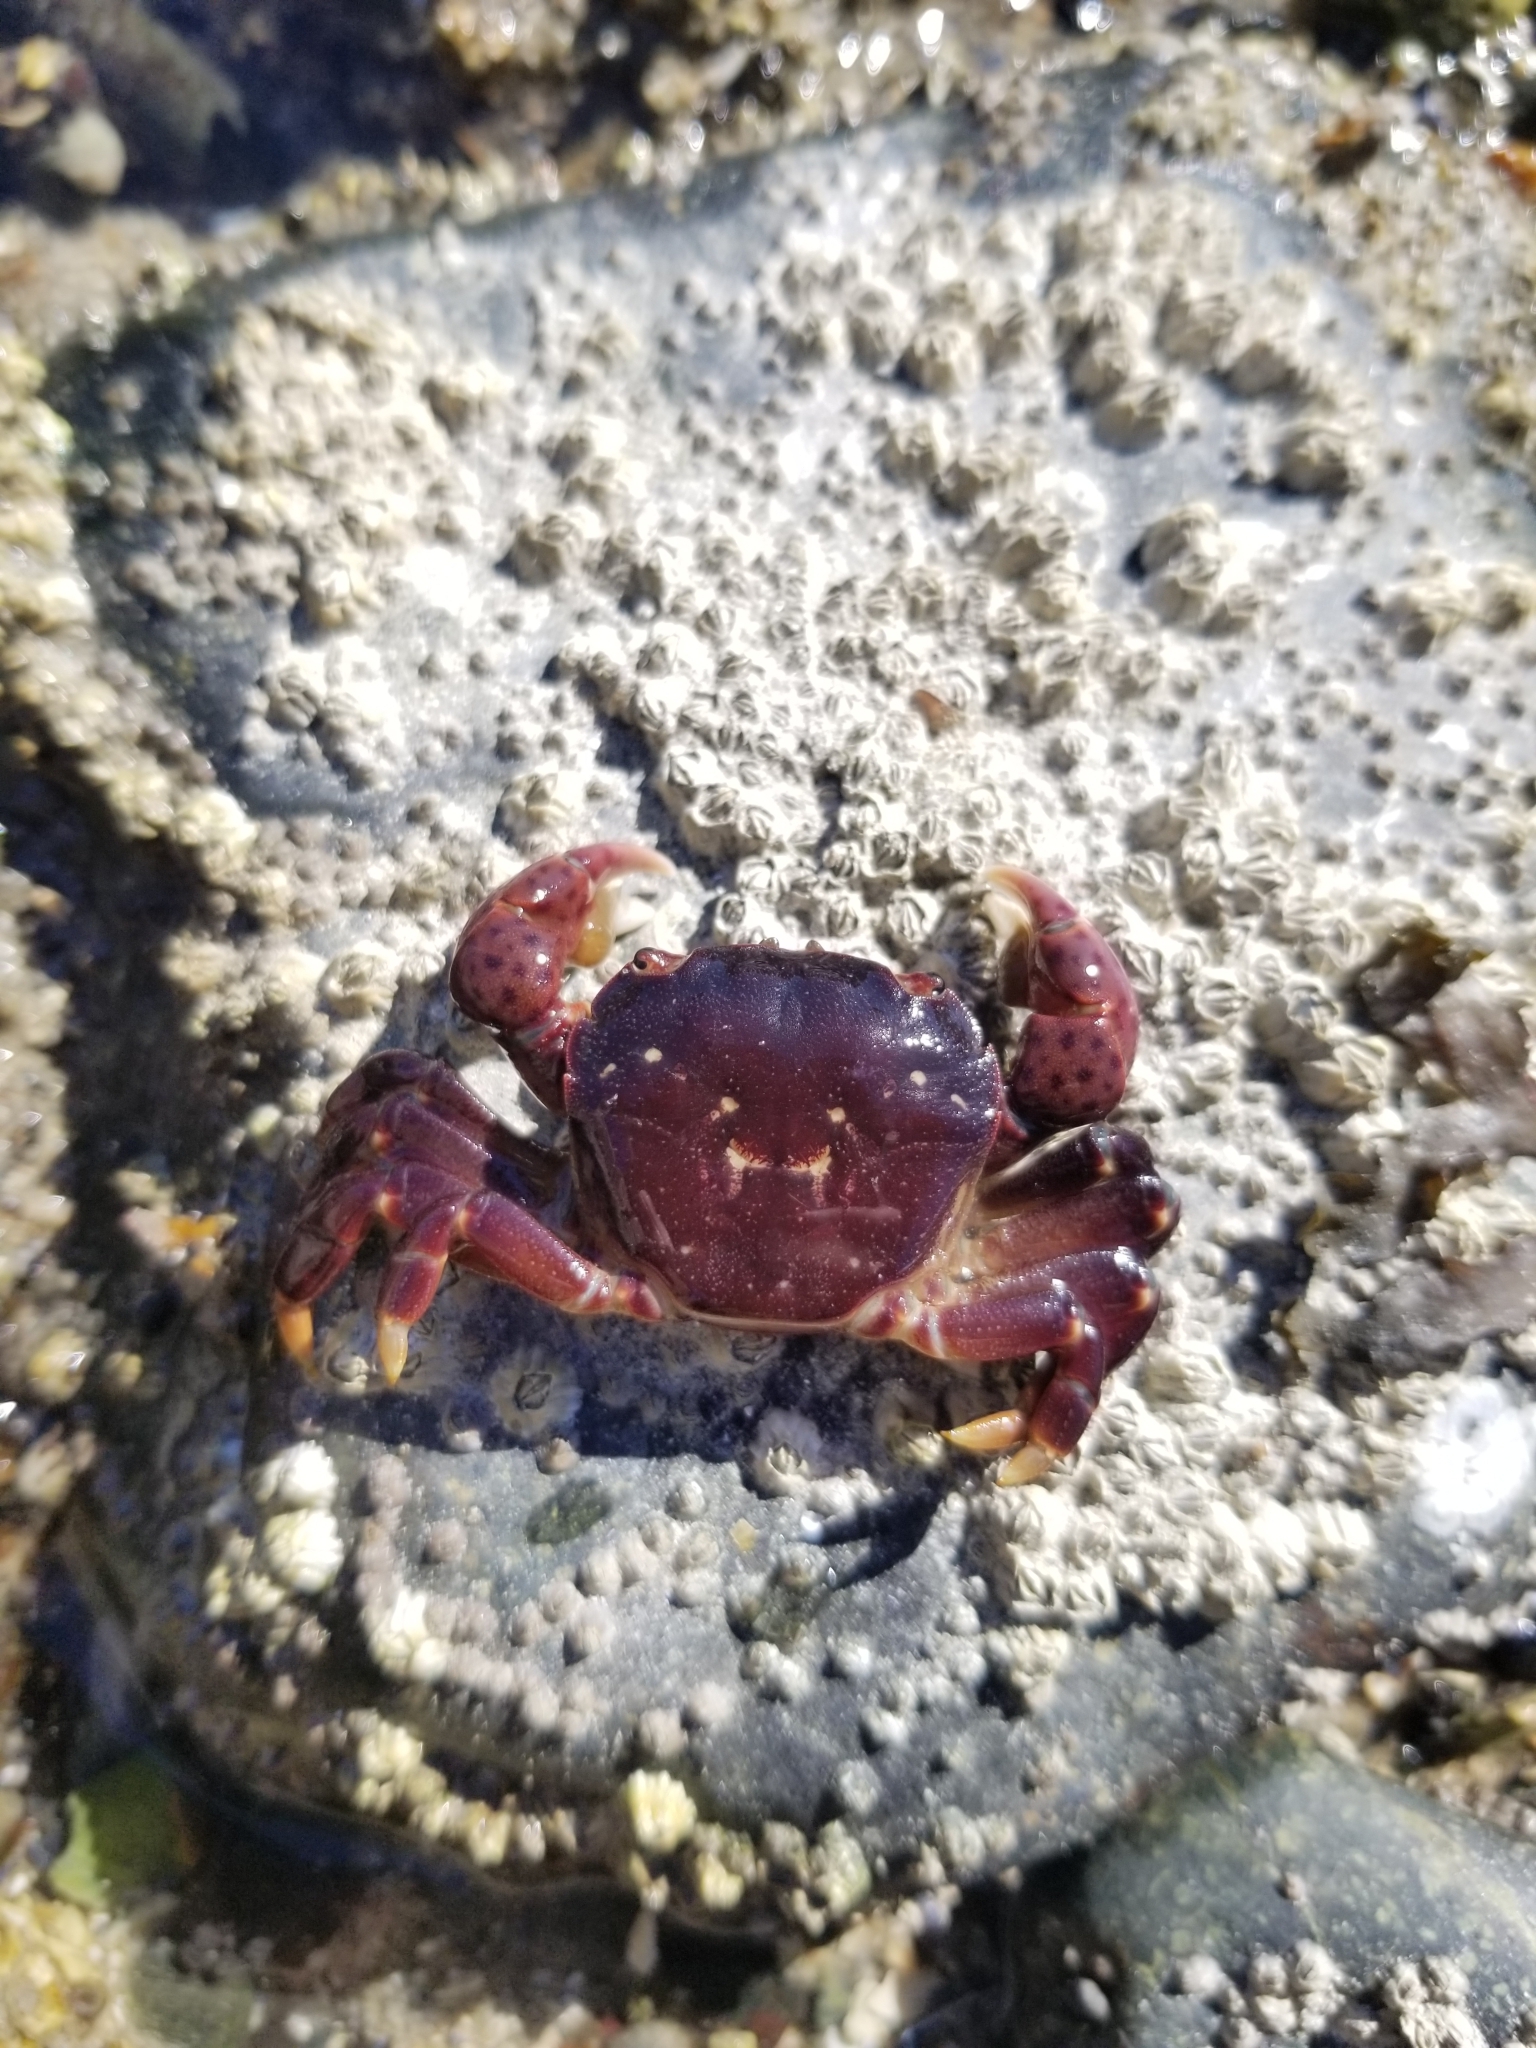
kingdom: Animalia
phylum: Arthropoda
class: Malacostraca
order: Decapoda
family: Varunidae
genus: Hemigrapsus
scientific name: Hemigrapsus nudus
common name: Purple shore crab
